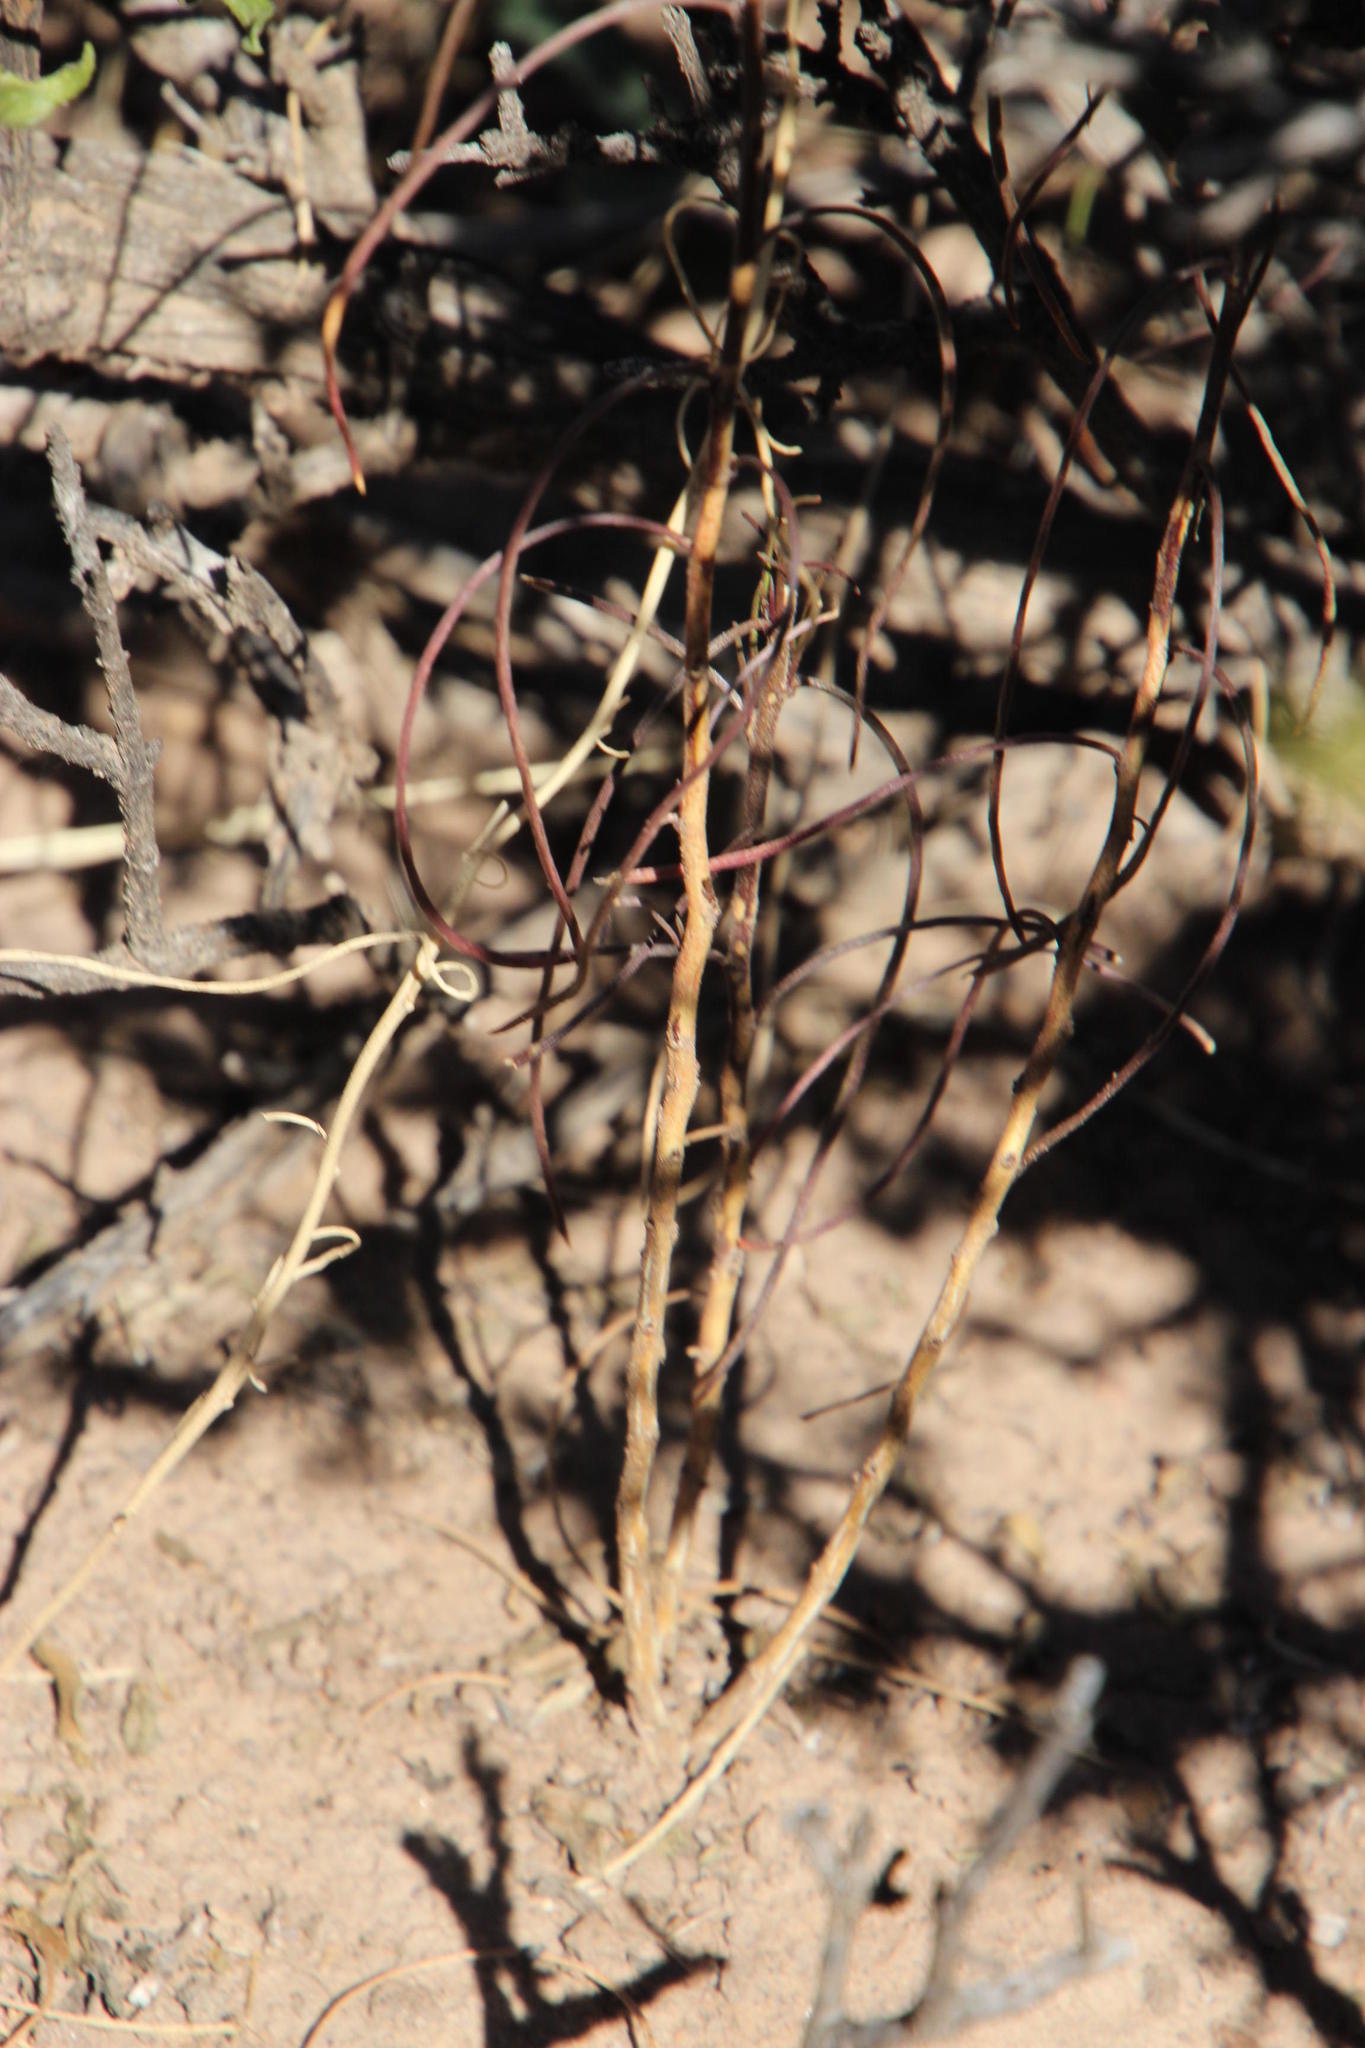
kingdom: Plantae
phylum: Tracheophyta
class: Magnoliopsida
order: Brassicales
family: Brassicaceae
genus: Heliophila
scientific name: Heliophila suavissima
